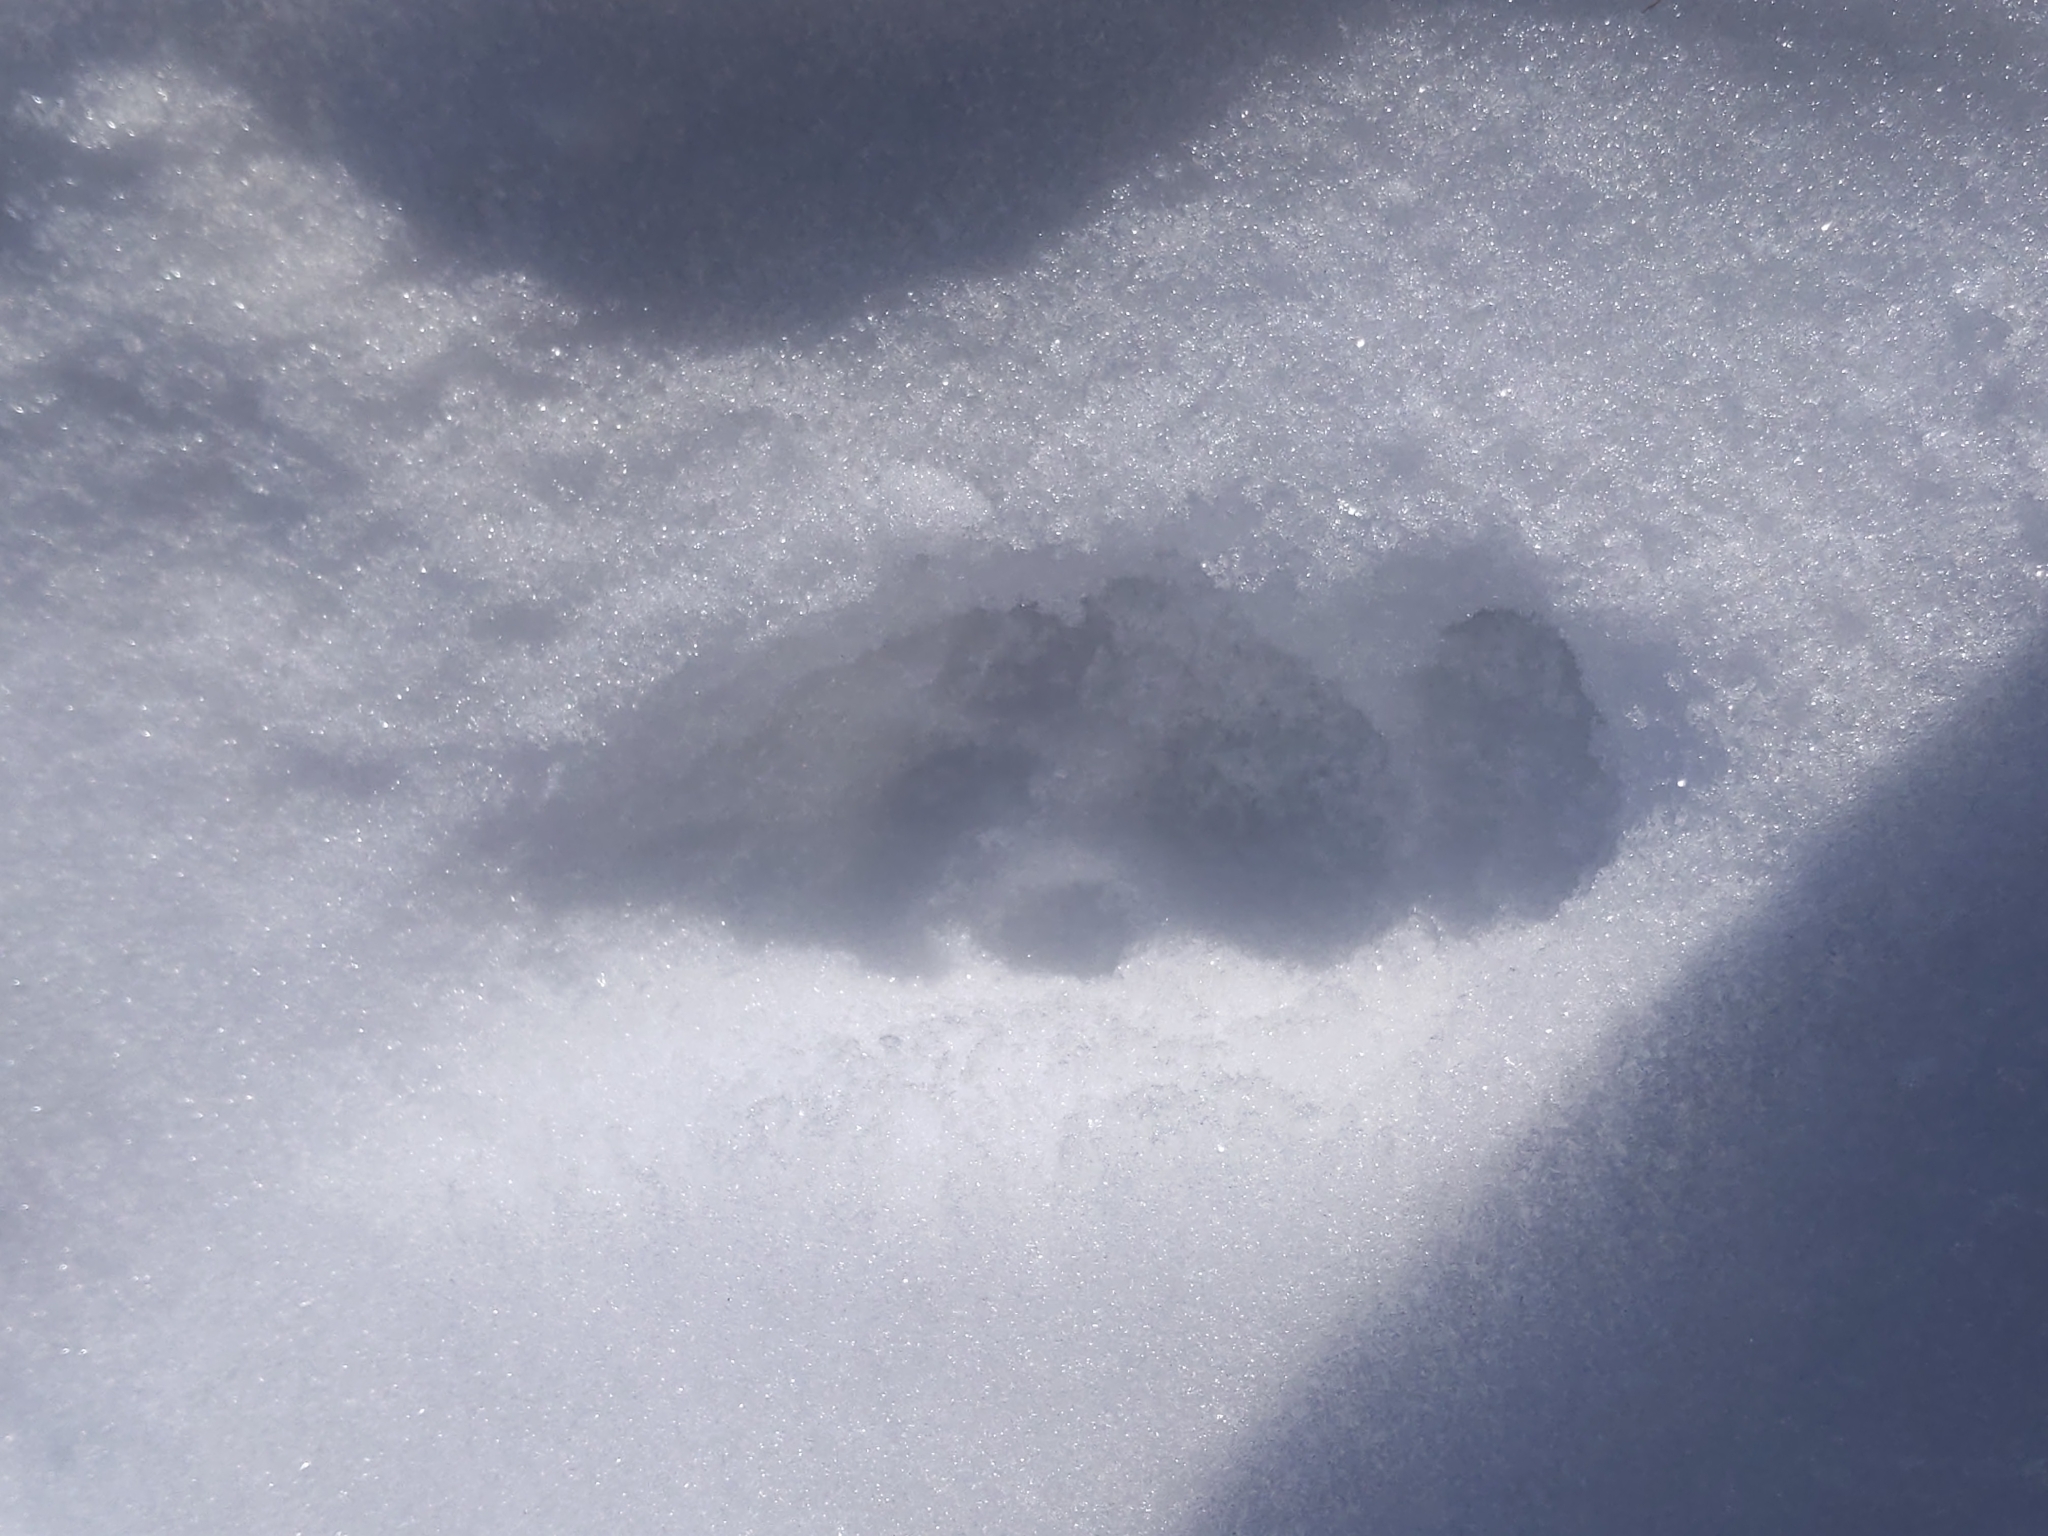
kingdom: Animalia
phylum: Chordata
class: Mammalia
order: Carnivora
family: Felidae
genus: Felis
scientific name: Felis catus
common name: Domestic cat
